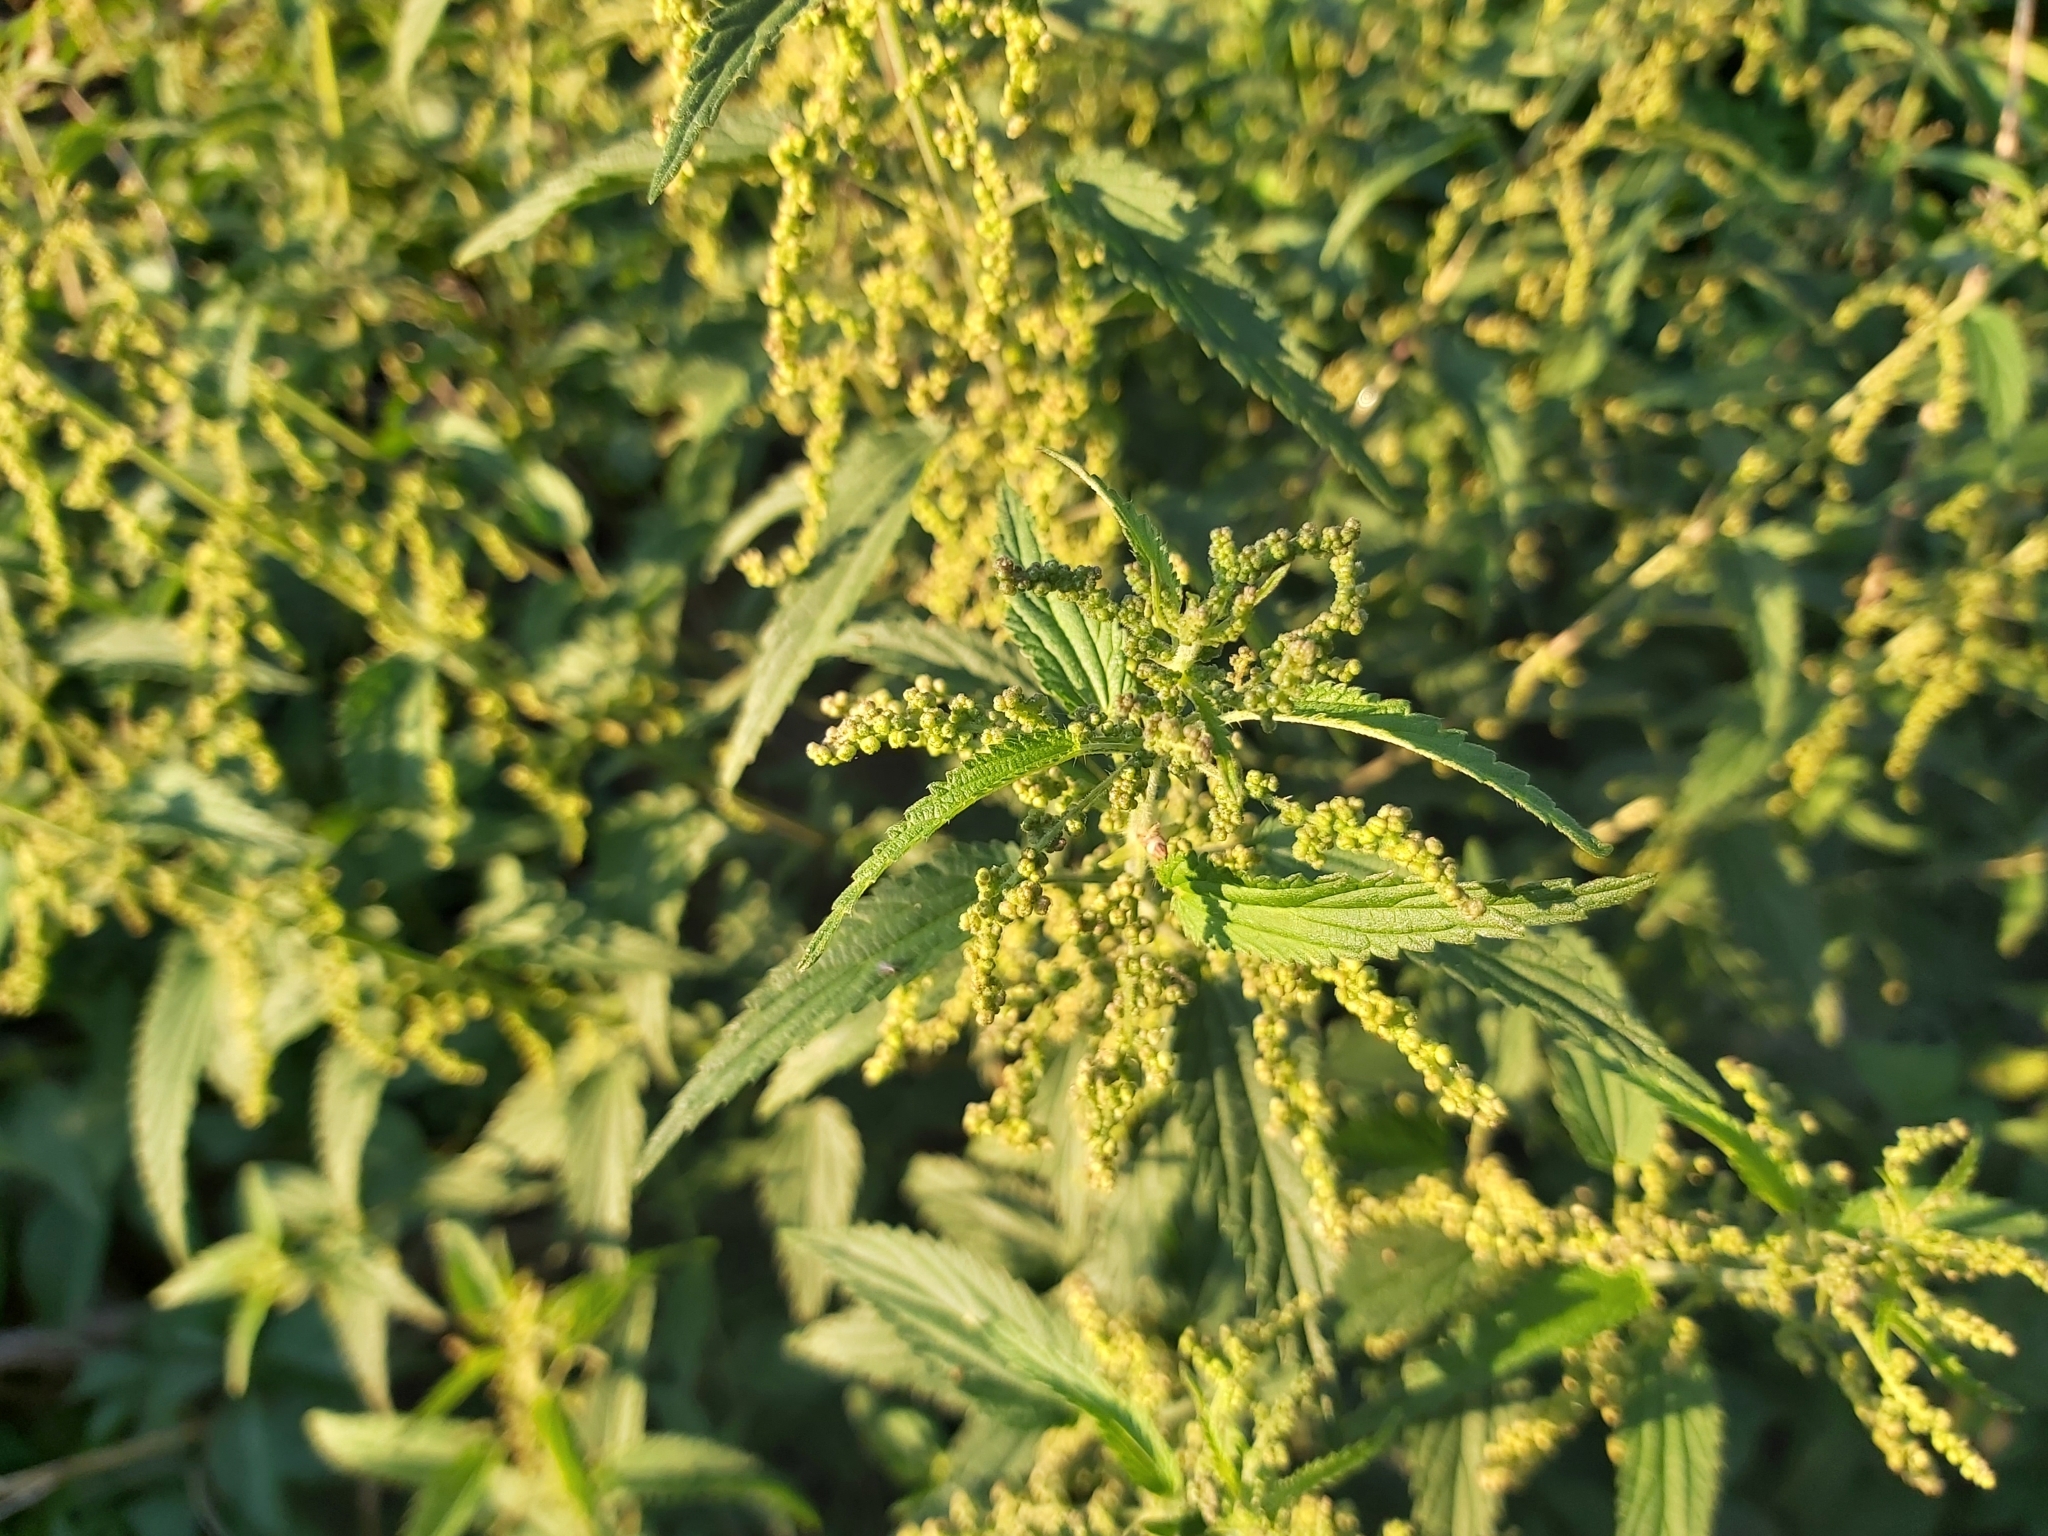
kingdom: Plantae
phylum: Tracheophyta
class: Magnoliopsida
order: Rosales
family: Urticaceae
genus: Urtica
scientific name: Urtica dioica
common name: Common nettle
